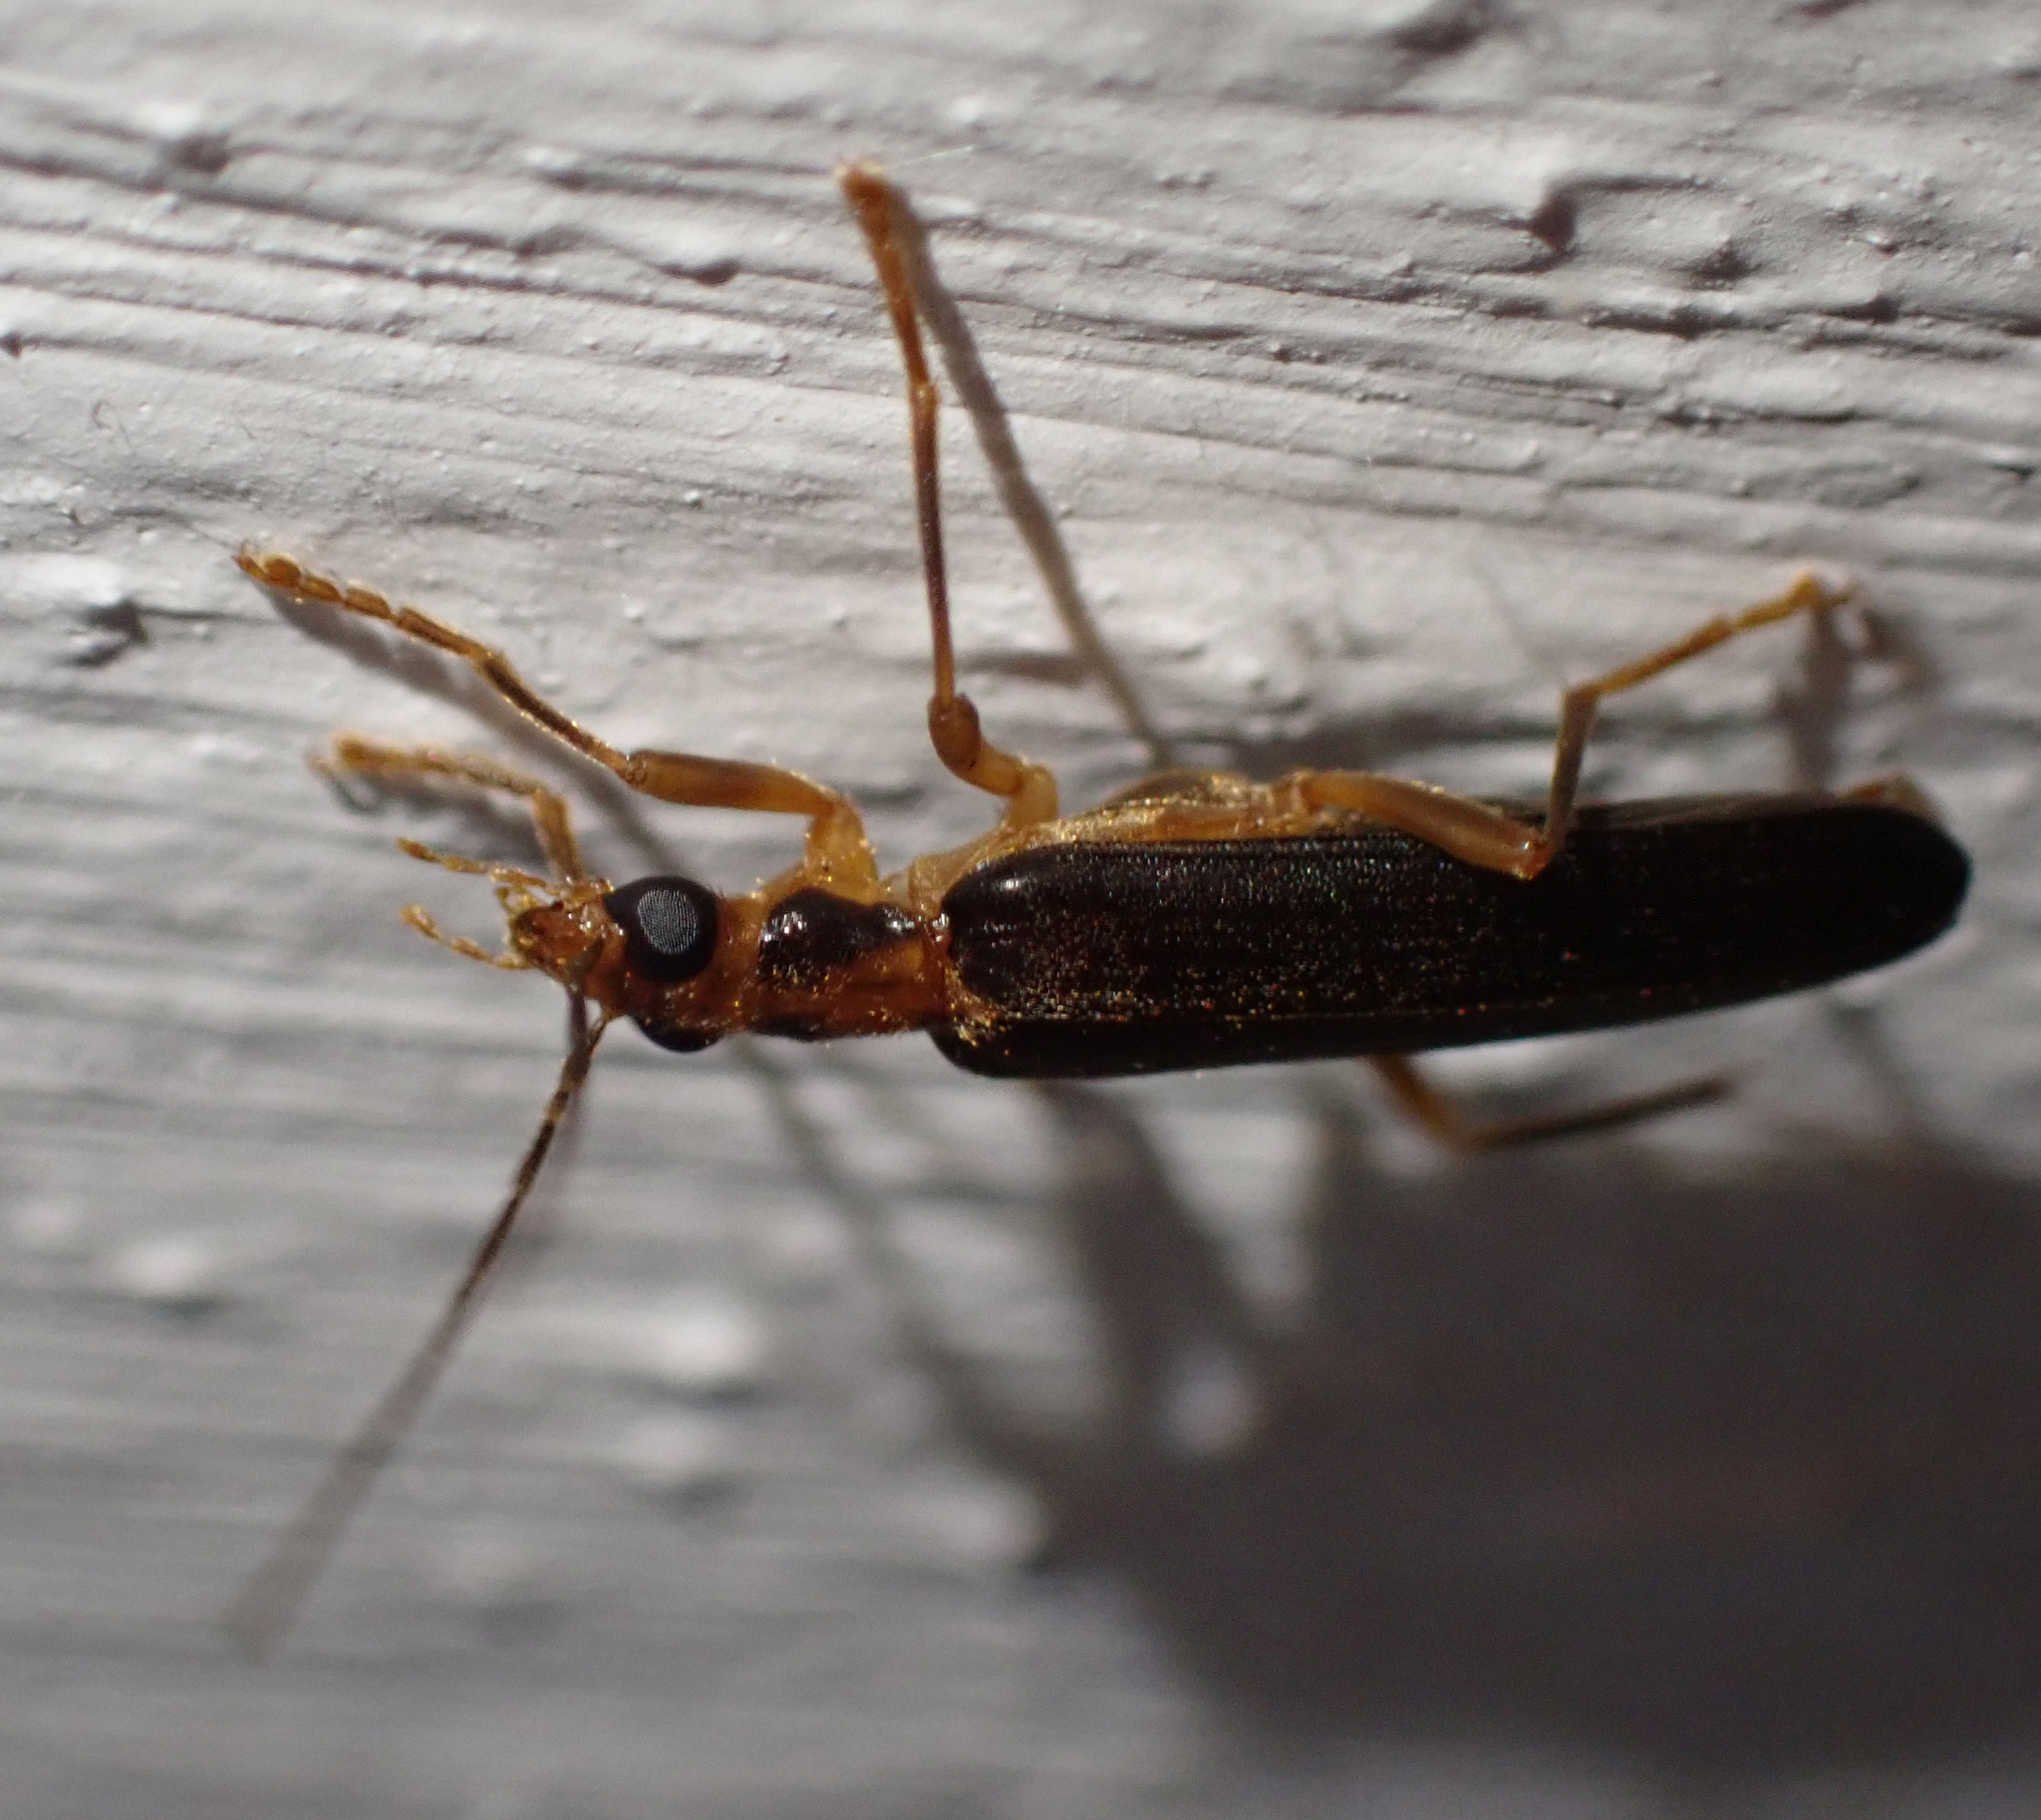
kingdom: Animalia
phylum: Arthropoda
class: Insecta
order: Coleoptera
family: Oedemeridae
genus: Nacerdes
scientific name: Nacerdes carniolica
